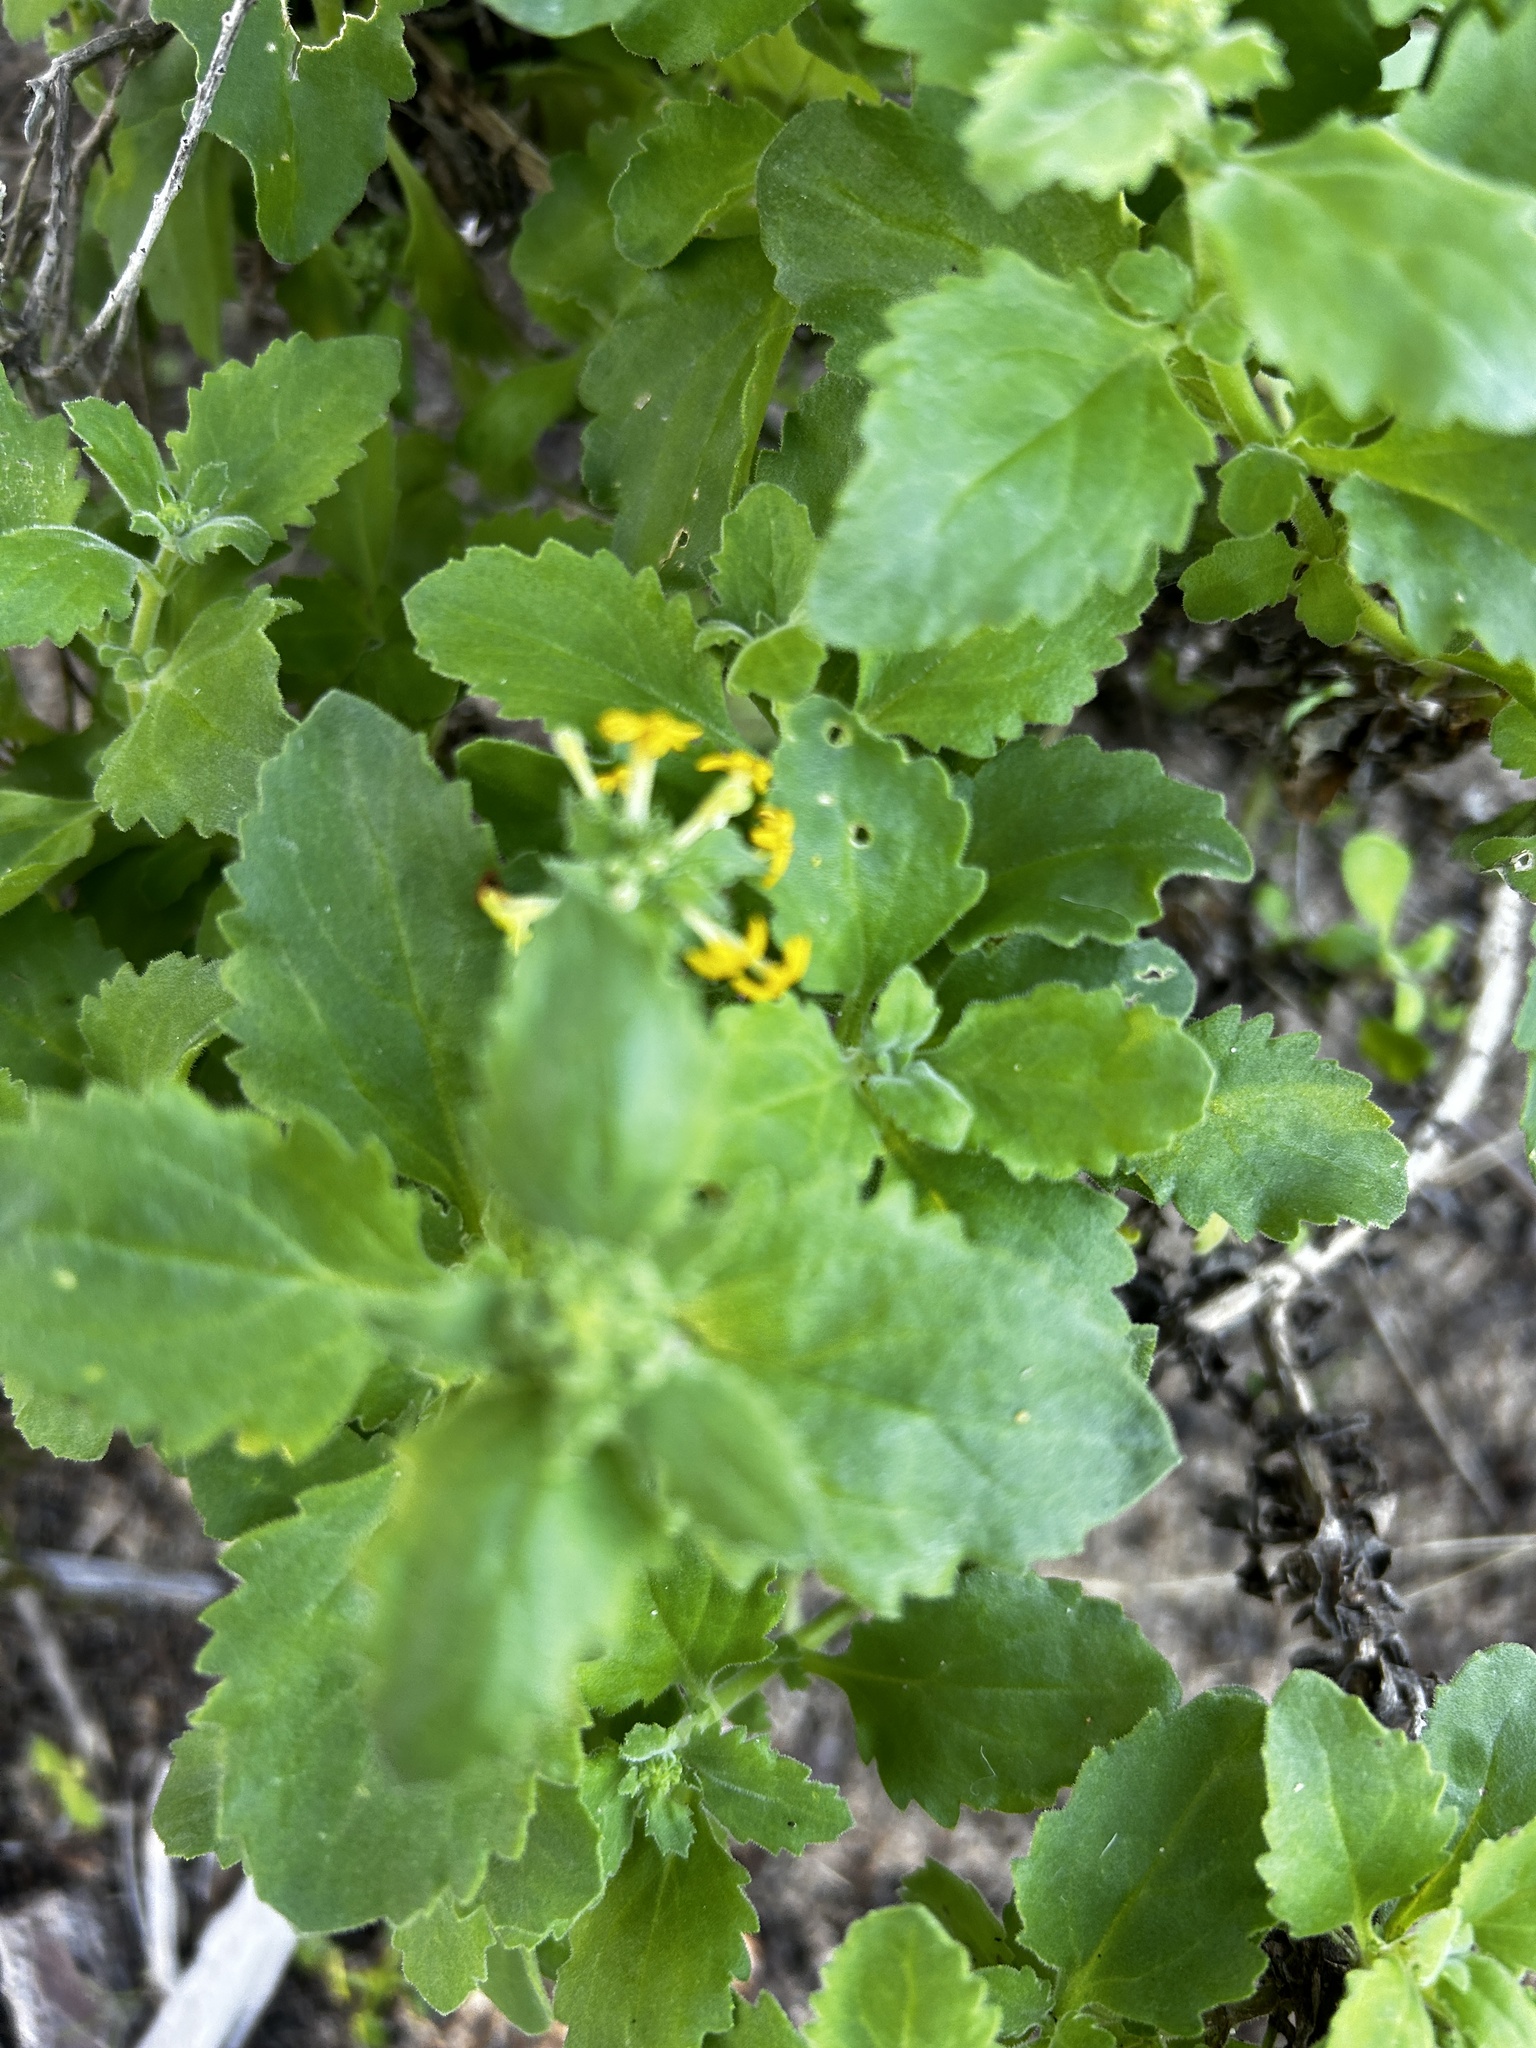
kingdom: Plantae
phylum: Tracheophyta
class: Magnoliopsida
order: Lamiales
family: Scrophulariaceae
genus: Manulea
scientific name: Manulea thyrsiflora
